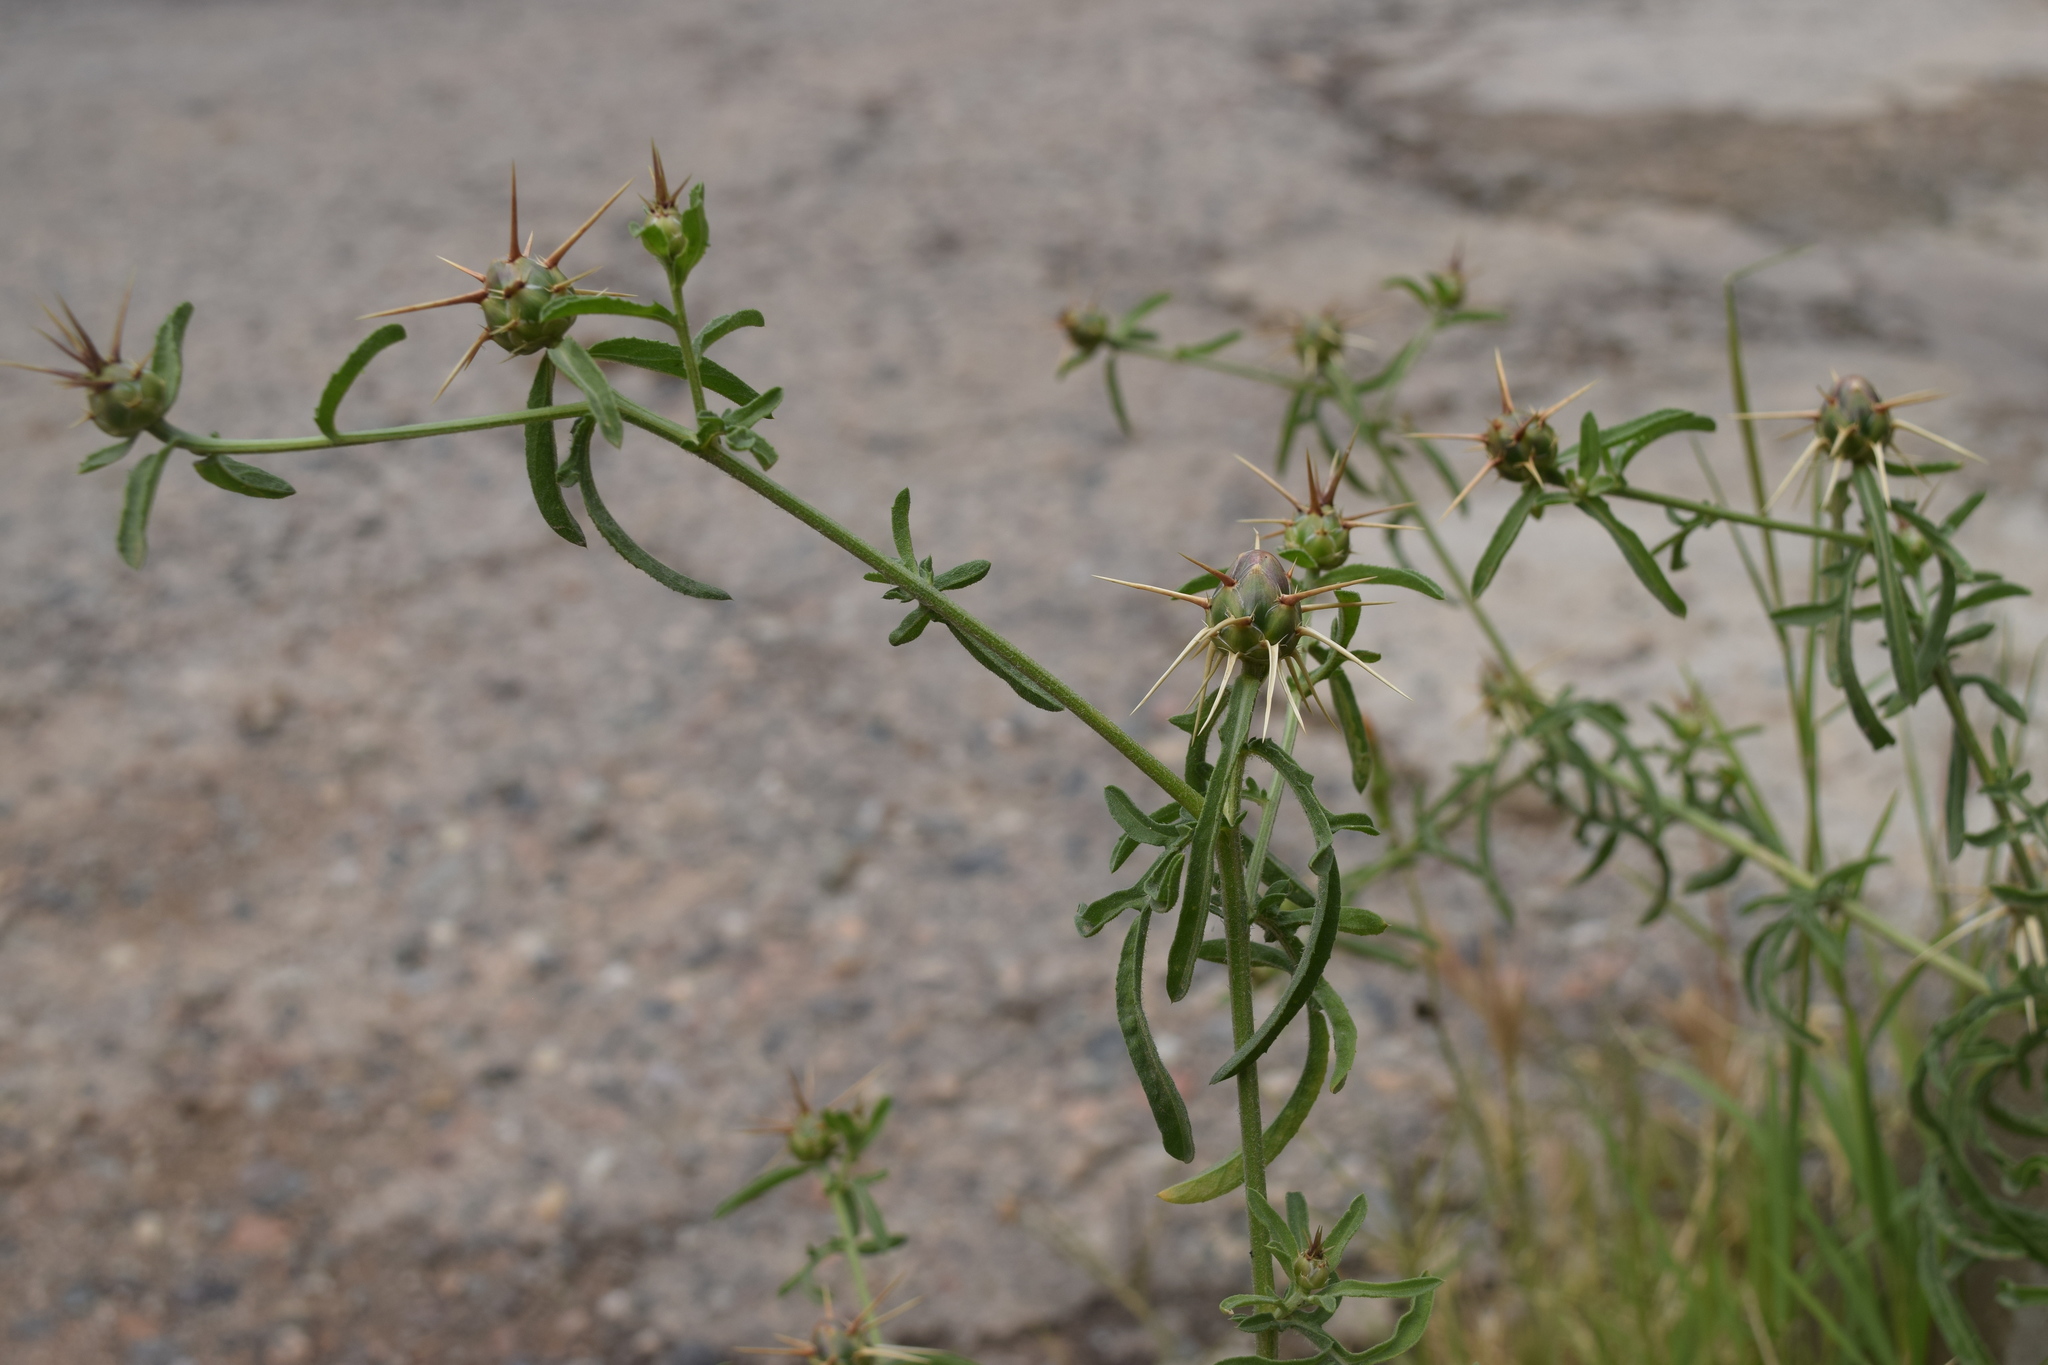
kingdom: Plantae
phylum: Tracheophyta
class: Magnoliopsida
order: Asterales
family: Asteraceae
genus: Centaurea
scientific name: Centaurea iberica
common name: Iberian knapweed
